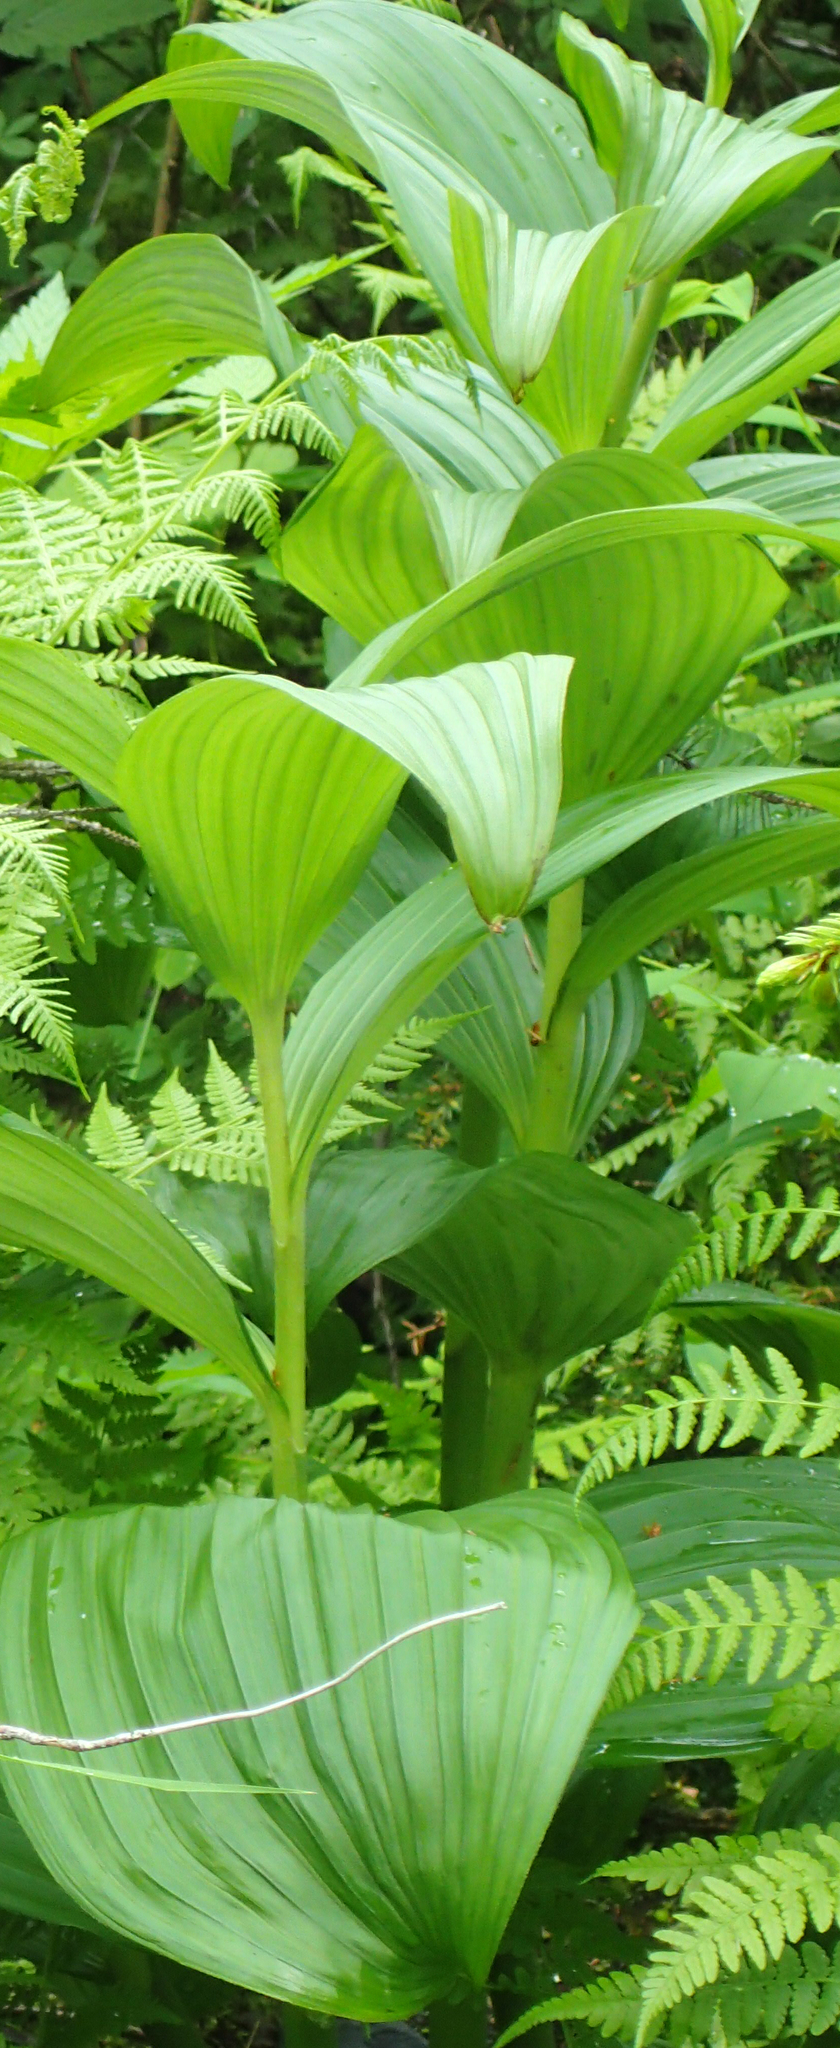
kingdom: Plantae
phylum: Tracheophyta
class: Liliopsida
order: Liliales
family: Melanthiaceae
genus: Veratrum
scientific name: Veratrum viride
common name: American false hellebore
